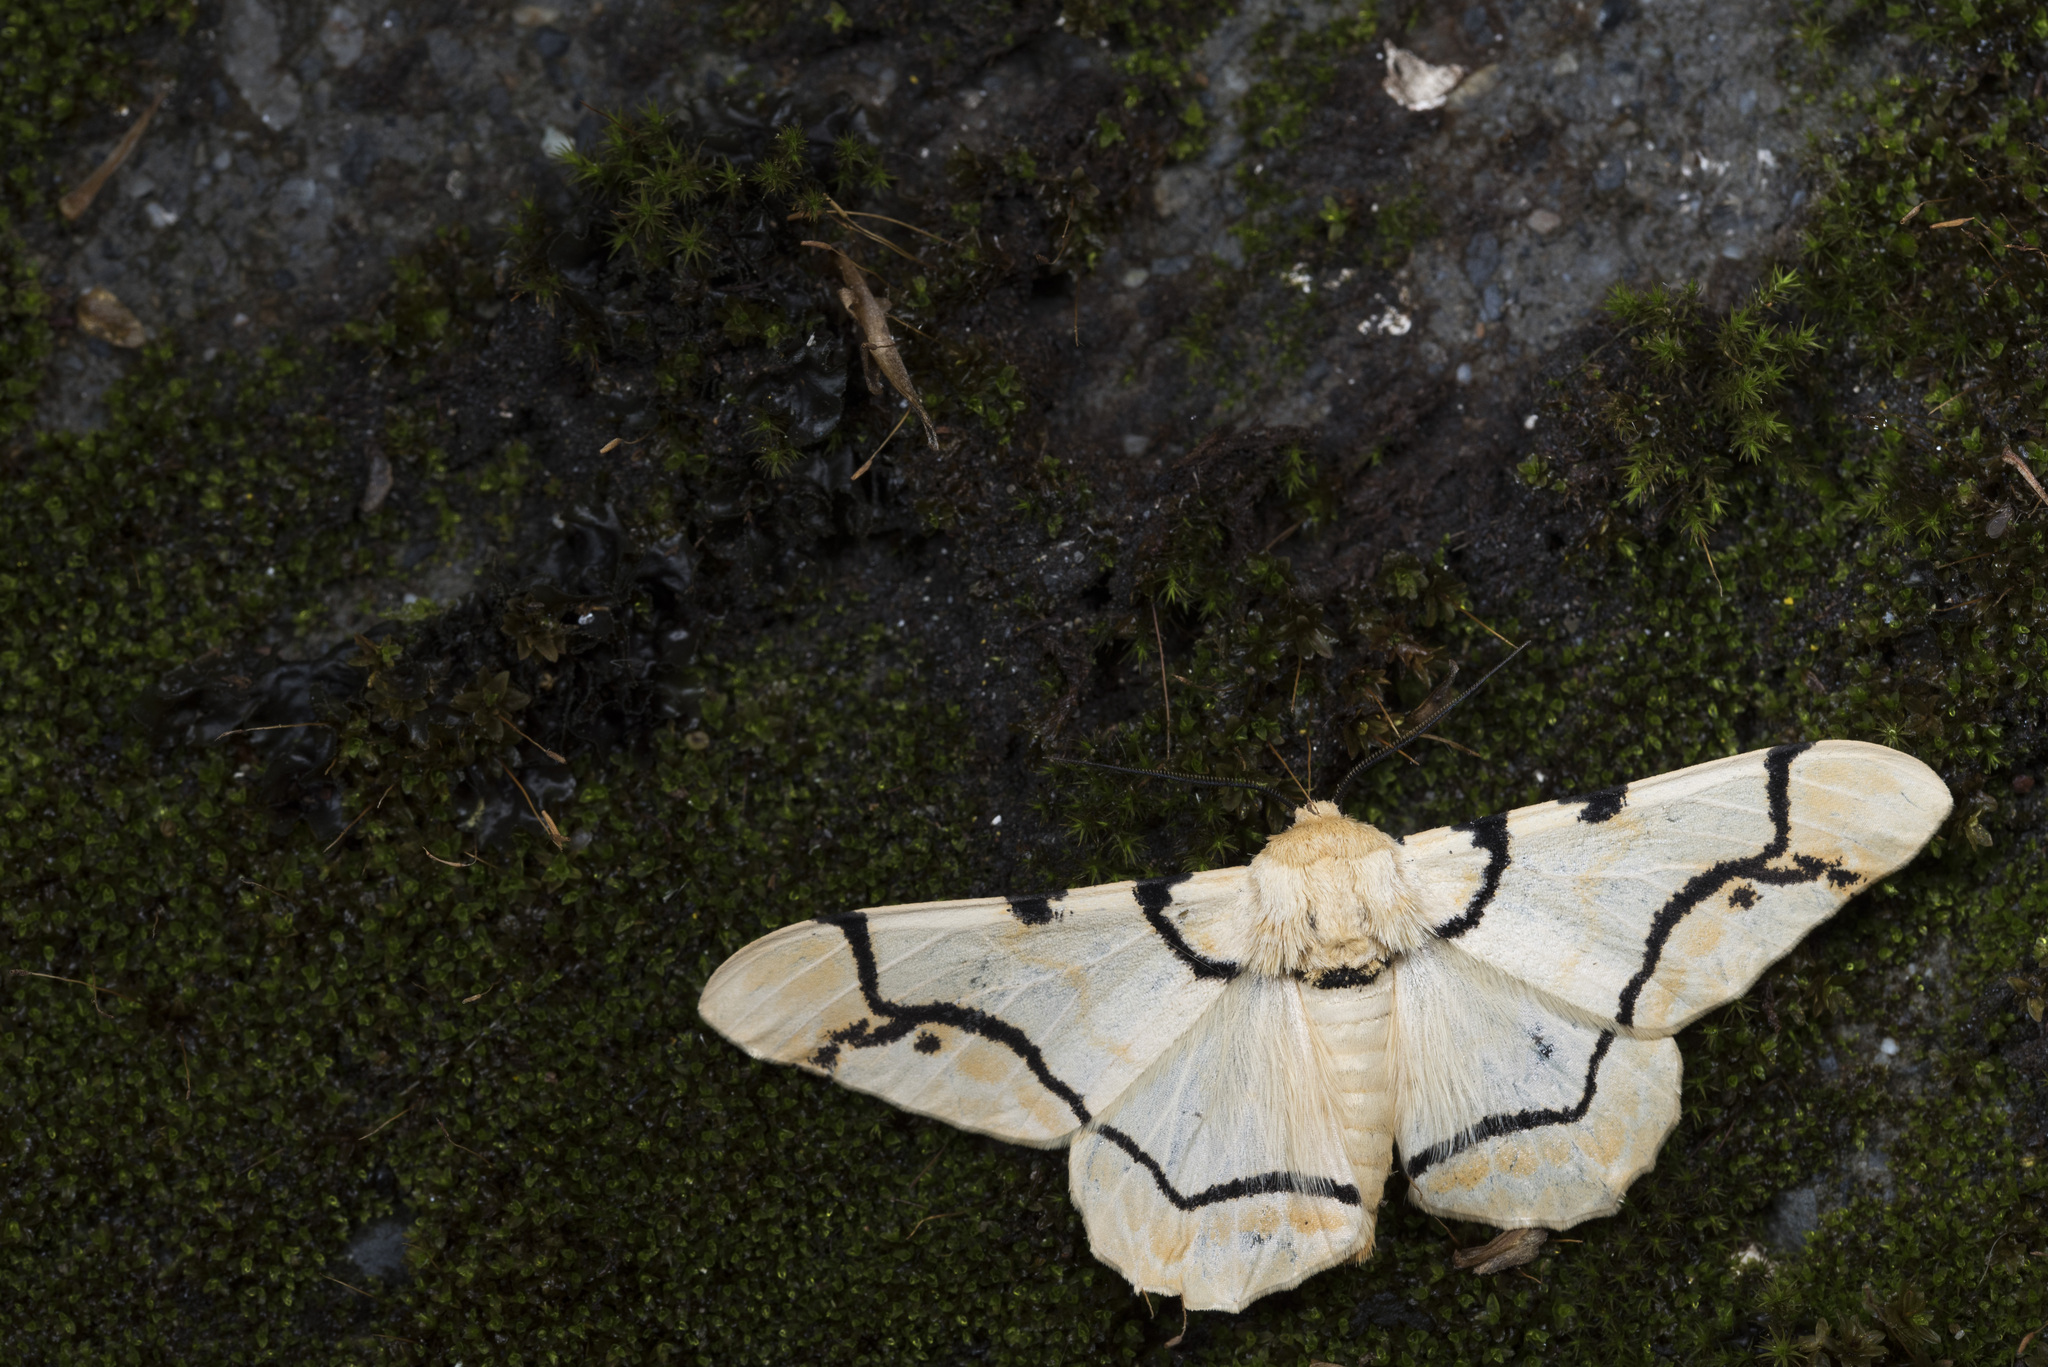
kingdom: Animalia
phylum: Arthropoda
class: Insecta
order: Lepidoptera
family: Geometridae
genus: Biston
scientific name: Biston perclara
